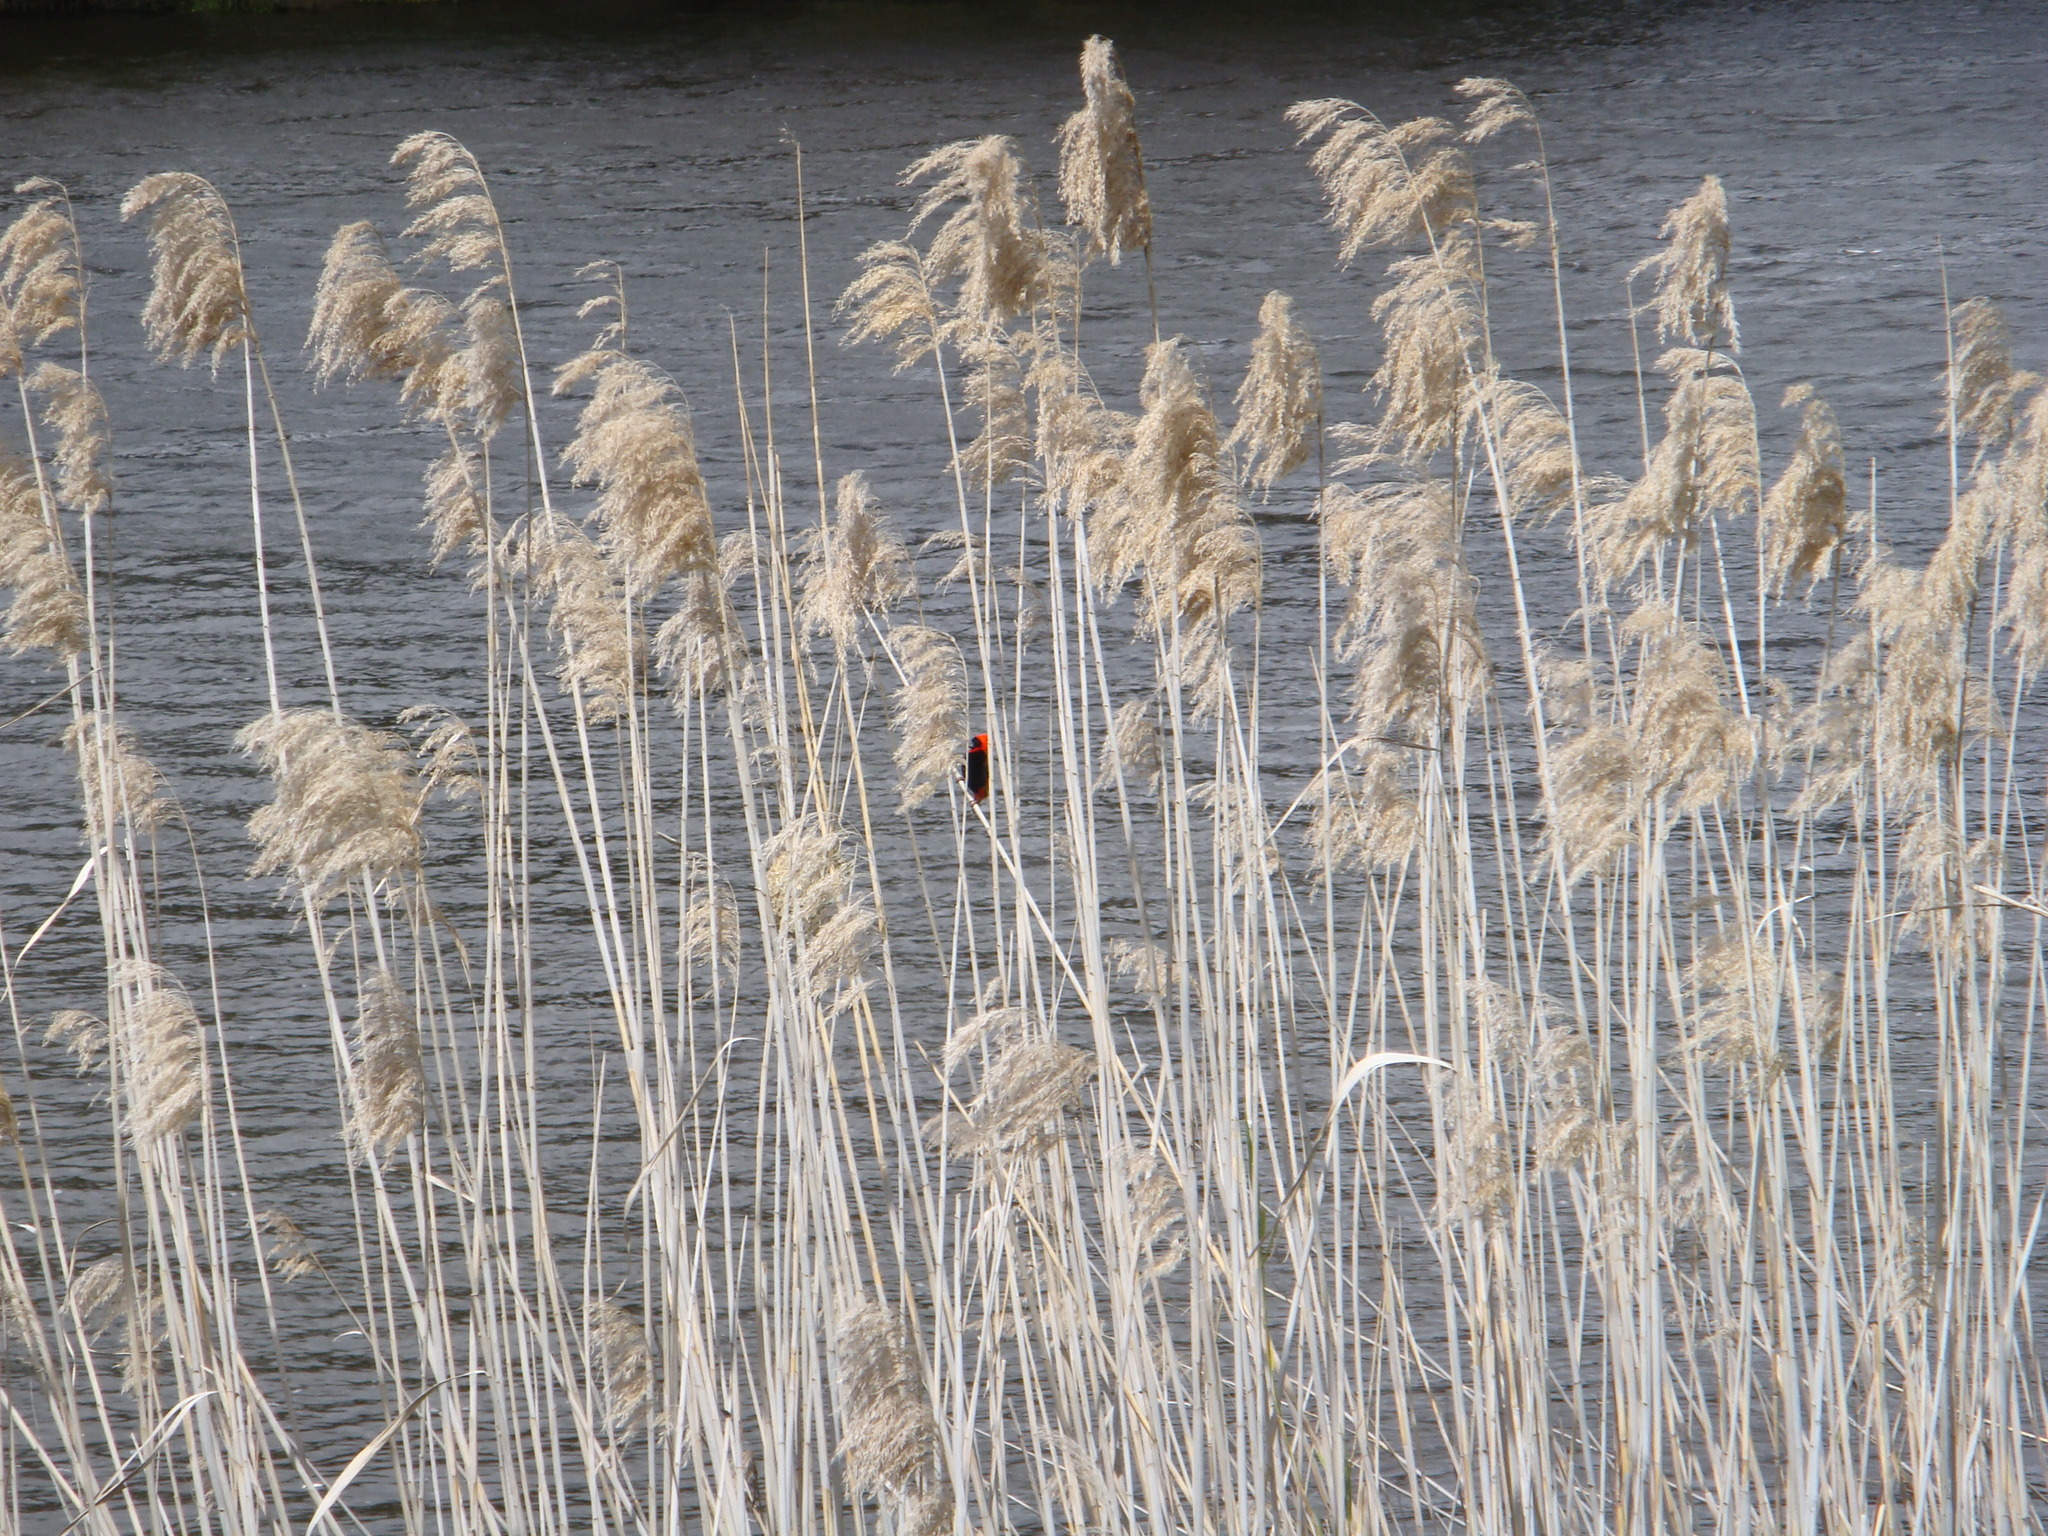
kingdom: Animalia
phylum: Chordata
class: Aves
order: Passeriformes
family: Ploceidae
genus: Euplectes
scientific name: Euplectes orix
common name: Southern red bishop
